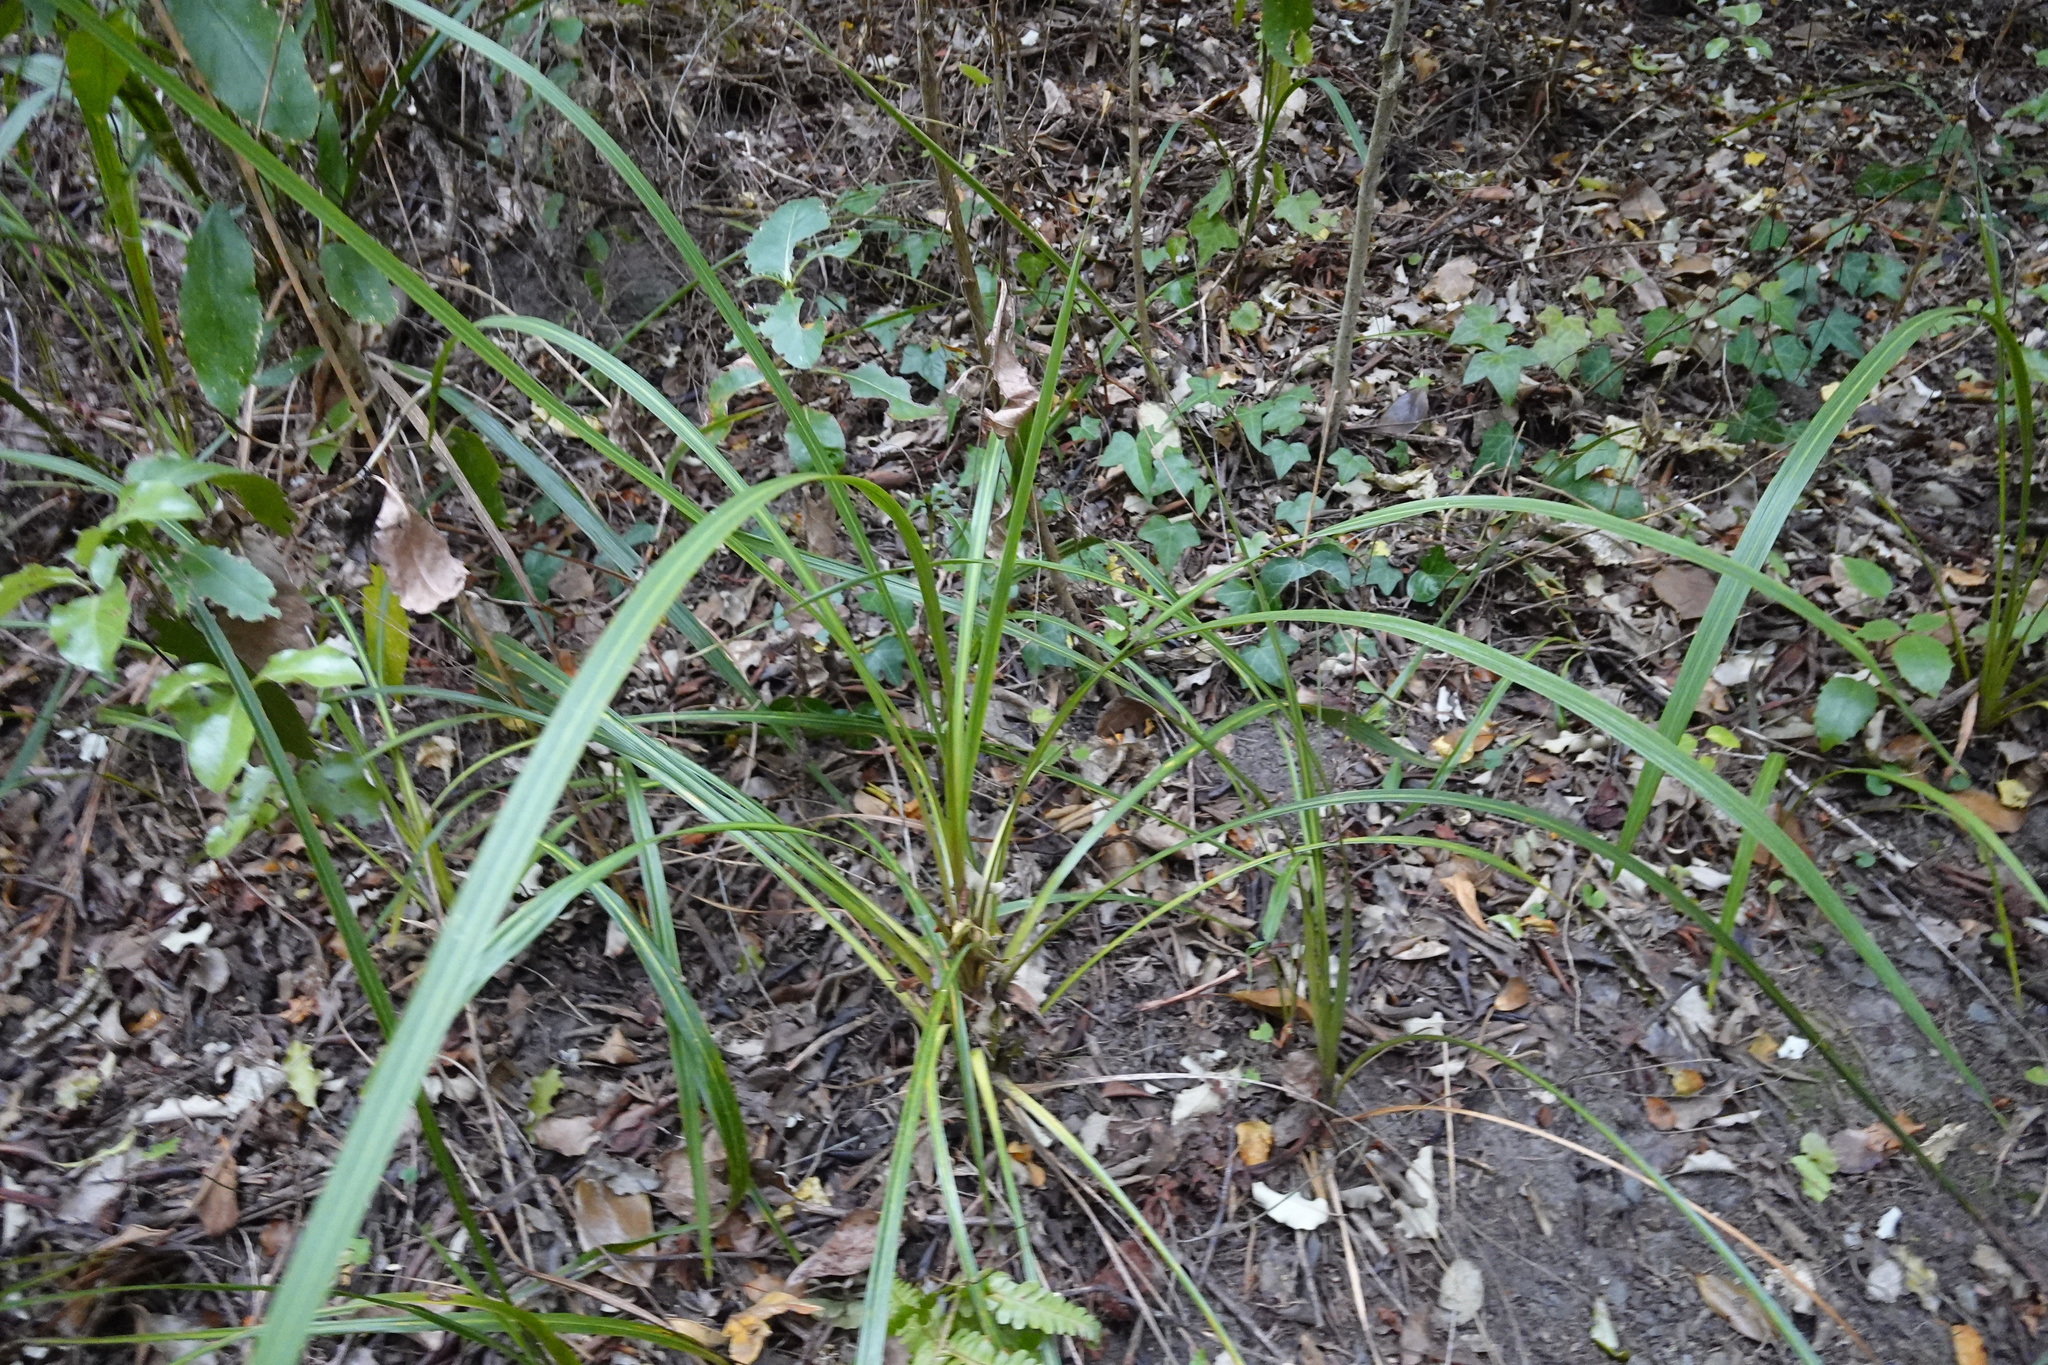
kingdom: Plantae
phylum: Tracheophyta
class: Liliopsida
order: Asparagales
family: Asparagaceae
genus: Cordyline
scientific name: Cordyline australis
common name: Cabbage-palm
